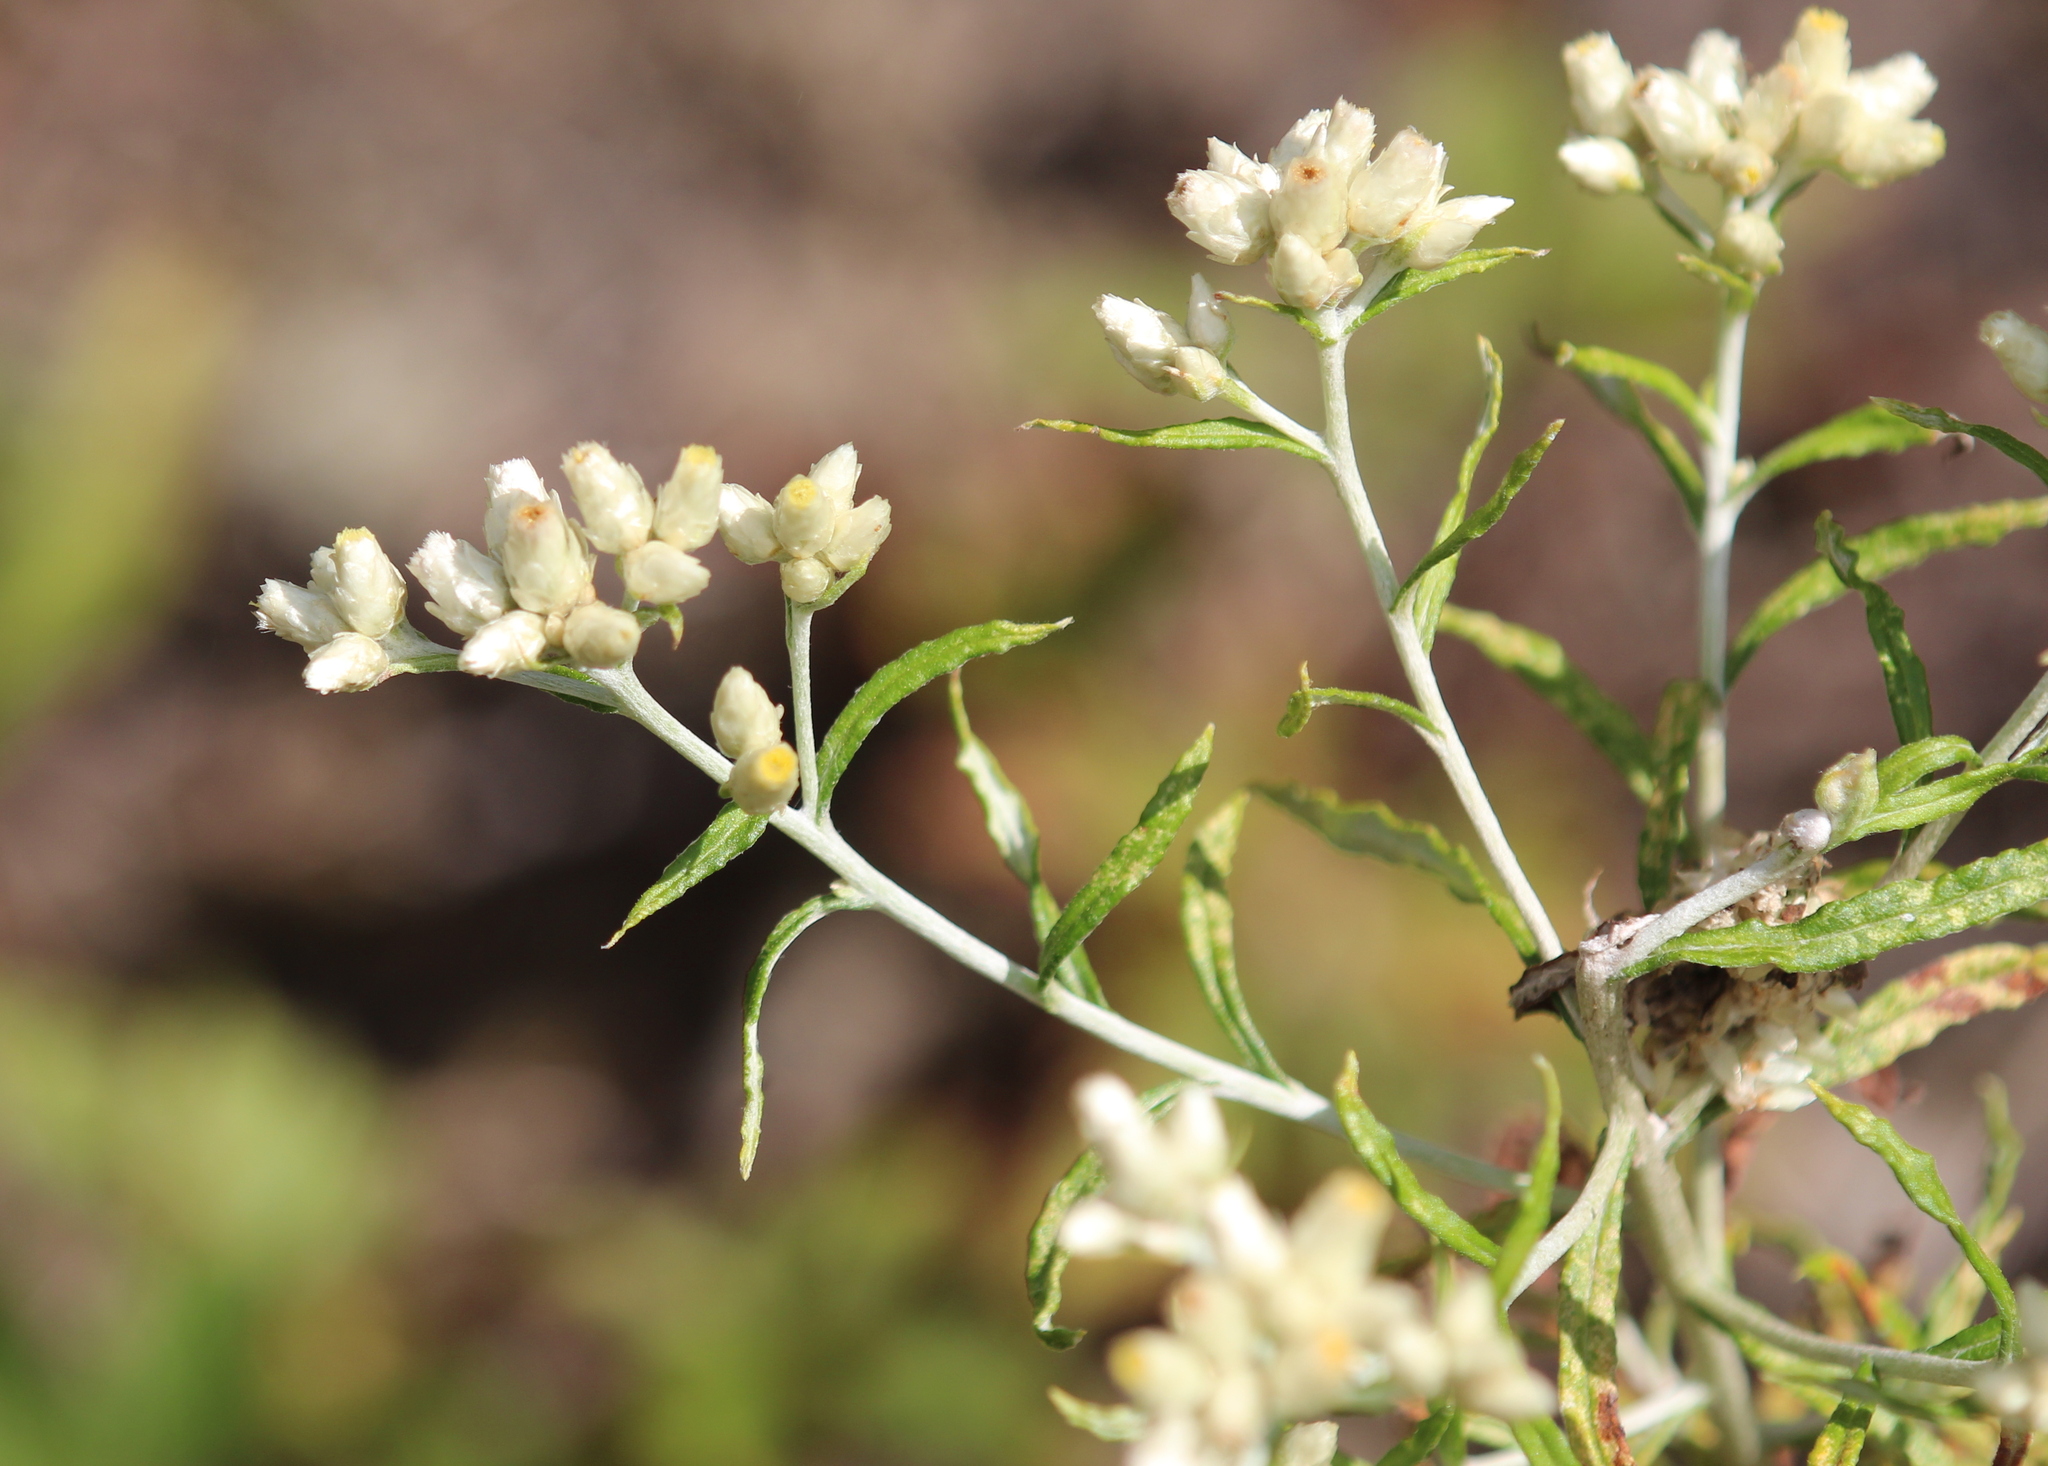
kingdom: Plantae
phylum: Tracheophyta
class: Magnoliopsida
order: Asterales
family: Asteraceae
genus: Pseudognaphalium
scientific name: Pseudognaphalium obtusifolium
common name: Eastern rabbit-tobacco
